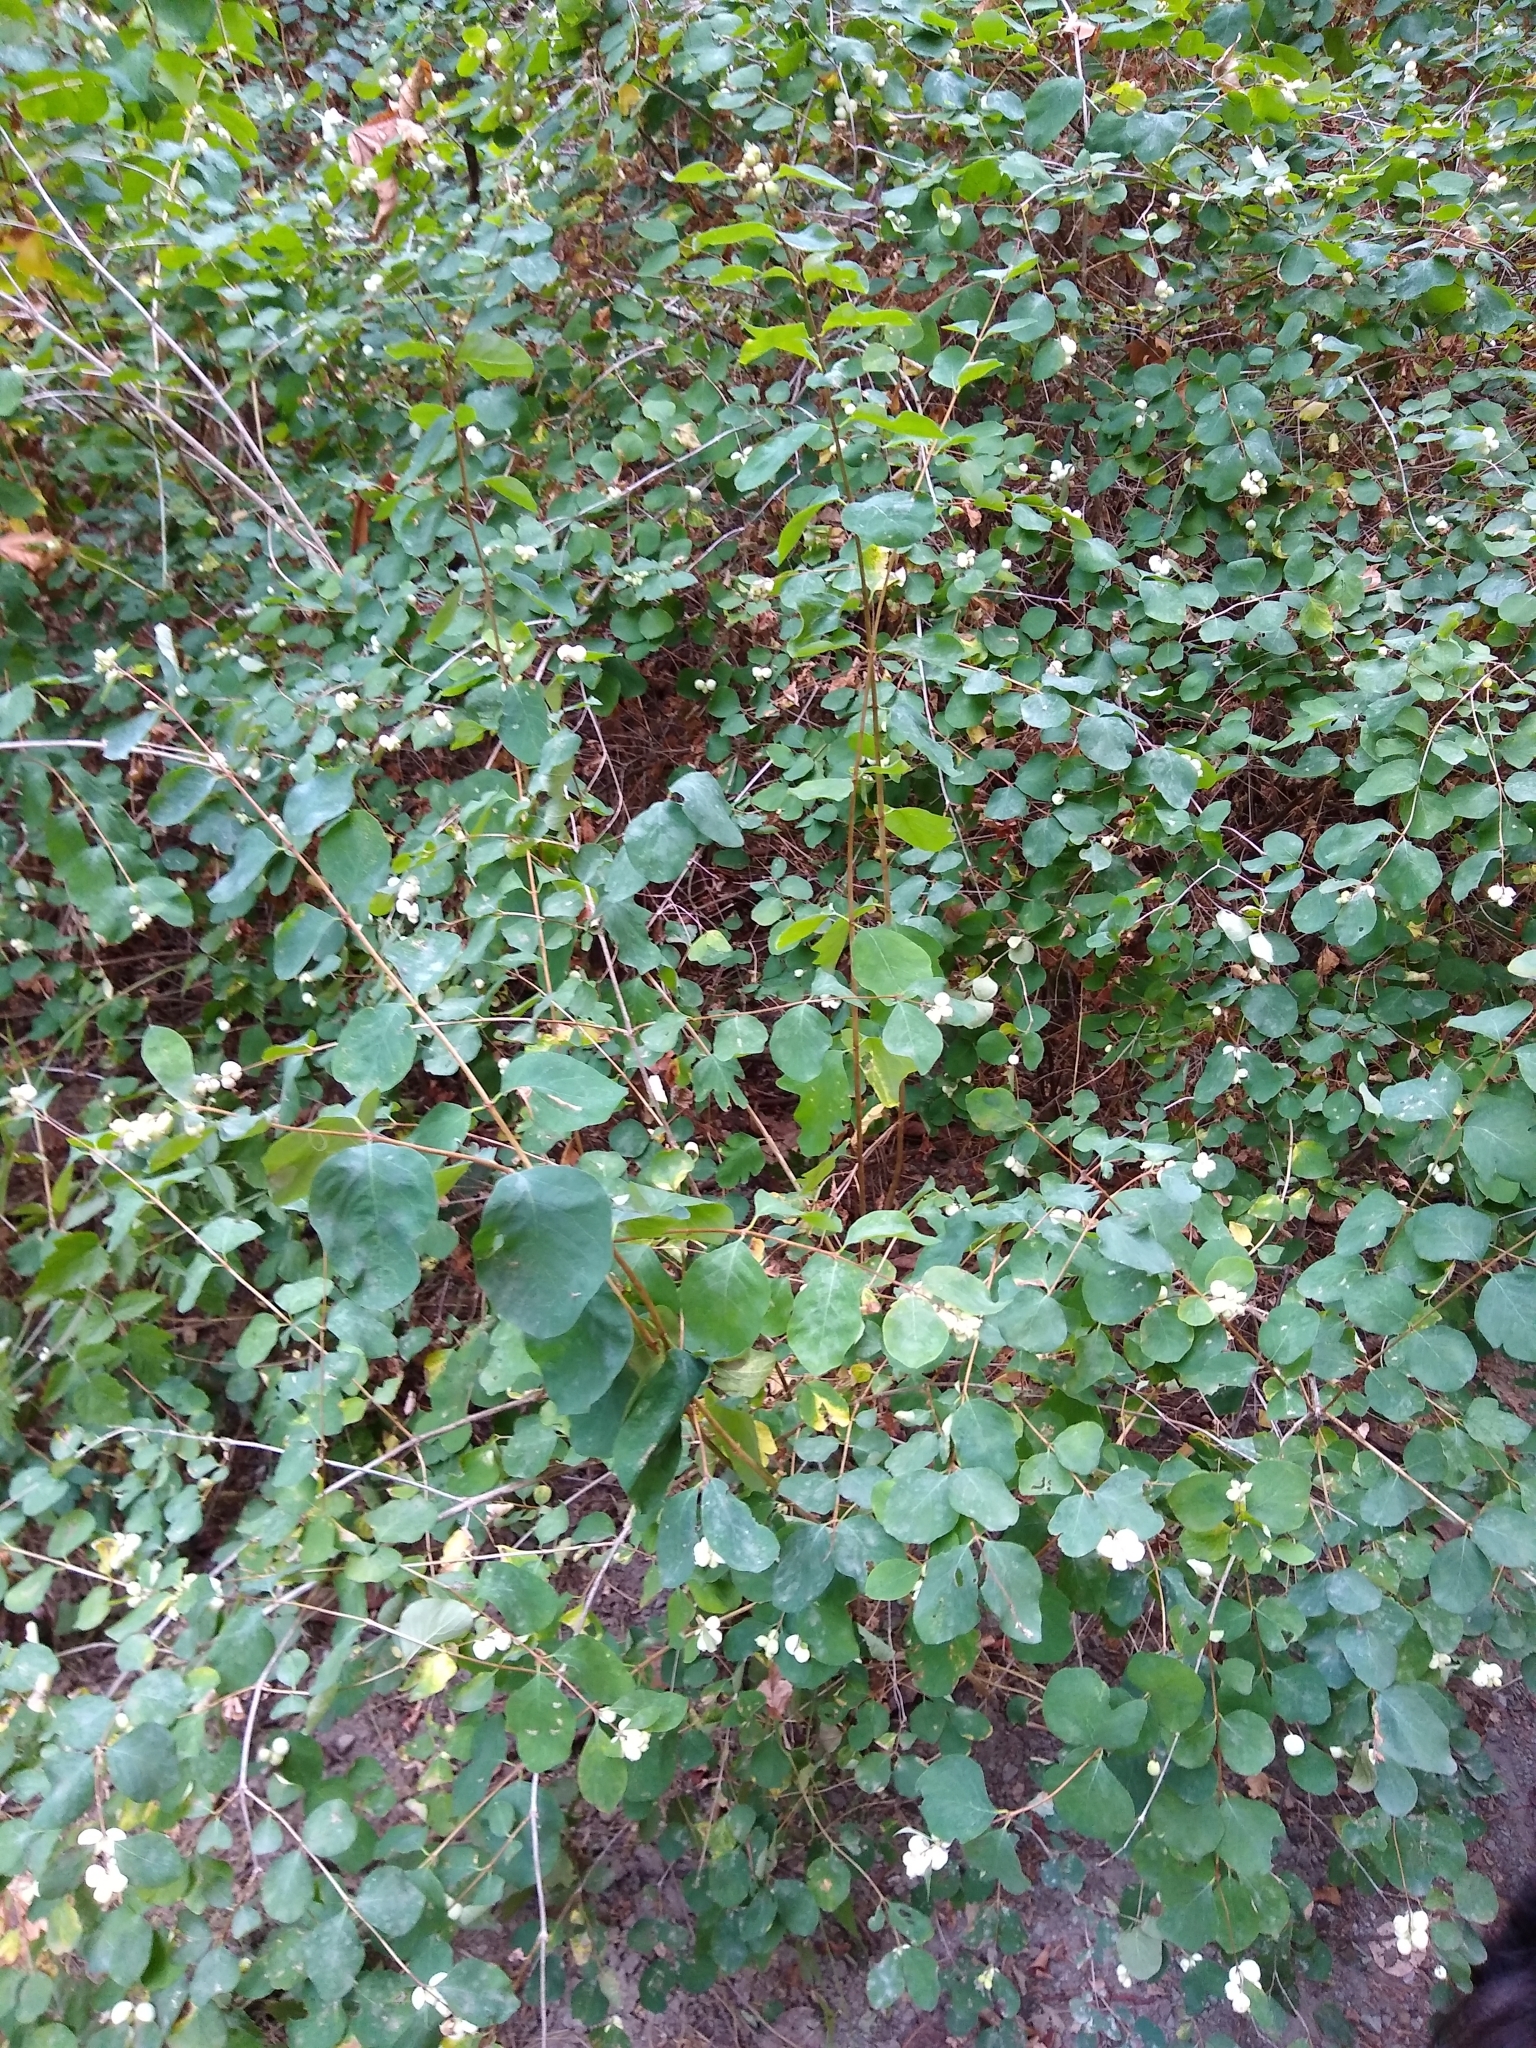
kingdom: Plantae
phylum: Tracheophyta
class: Magnoliopsida
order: Dipsacales
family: Caprifoliaceae
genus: Symphoricarpos
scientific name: Symphoricarpos albus
